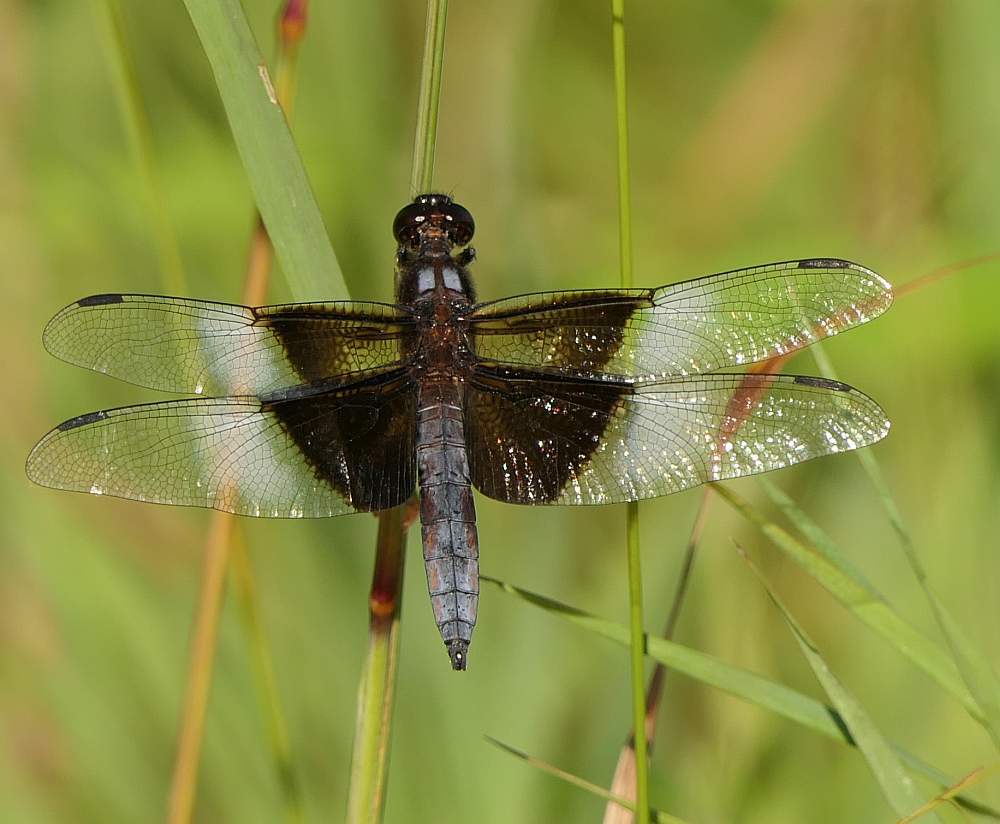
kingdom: Animalia
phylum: Arthropoda
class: Insecta
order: Odonata
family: Libellulidae
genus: Libellula
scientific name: Libellula luctuosa
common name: Widow skimmer
